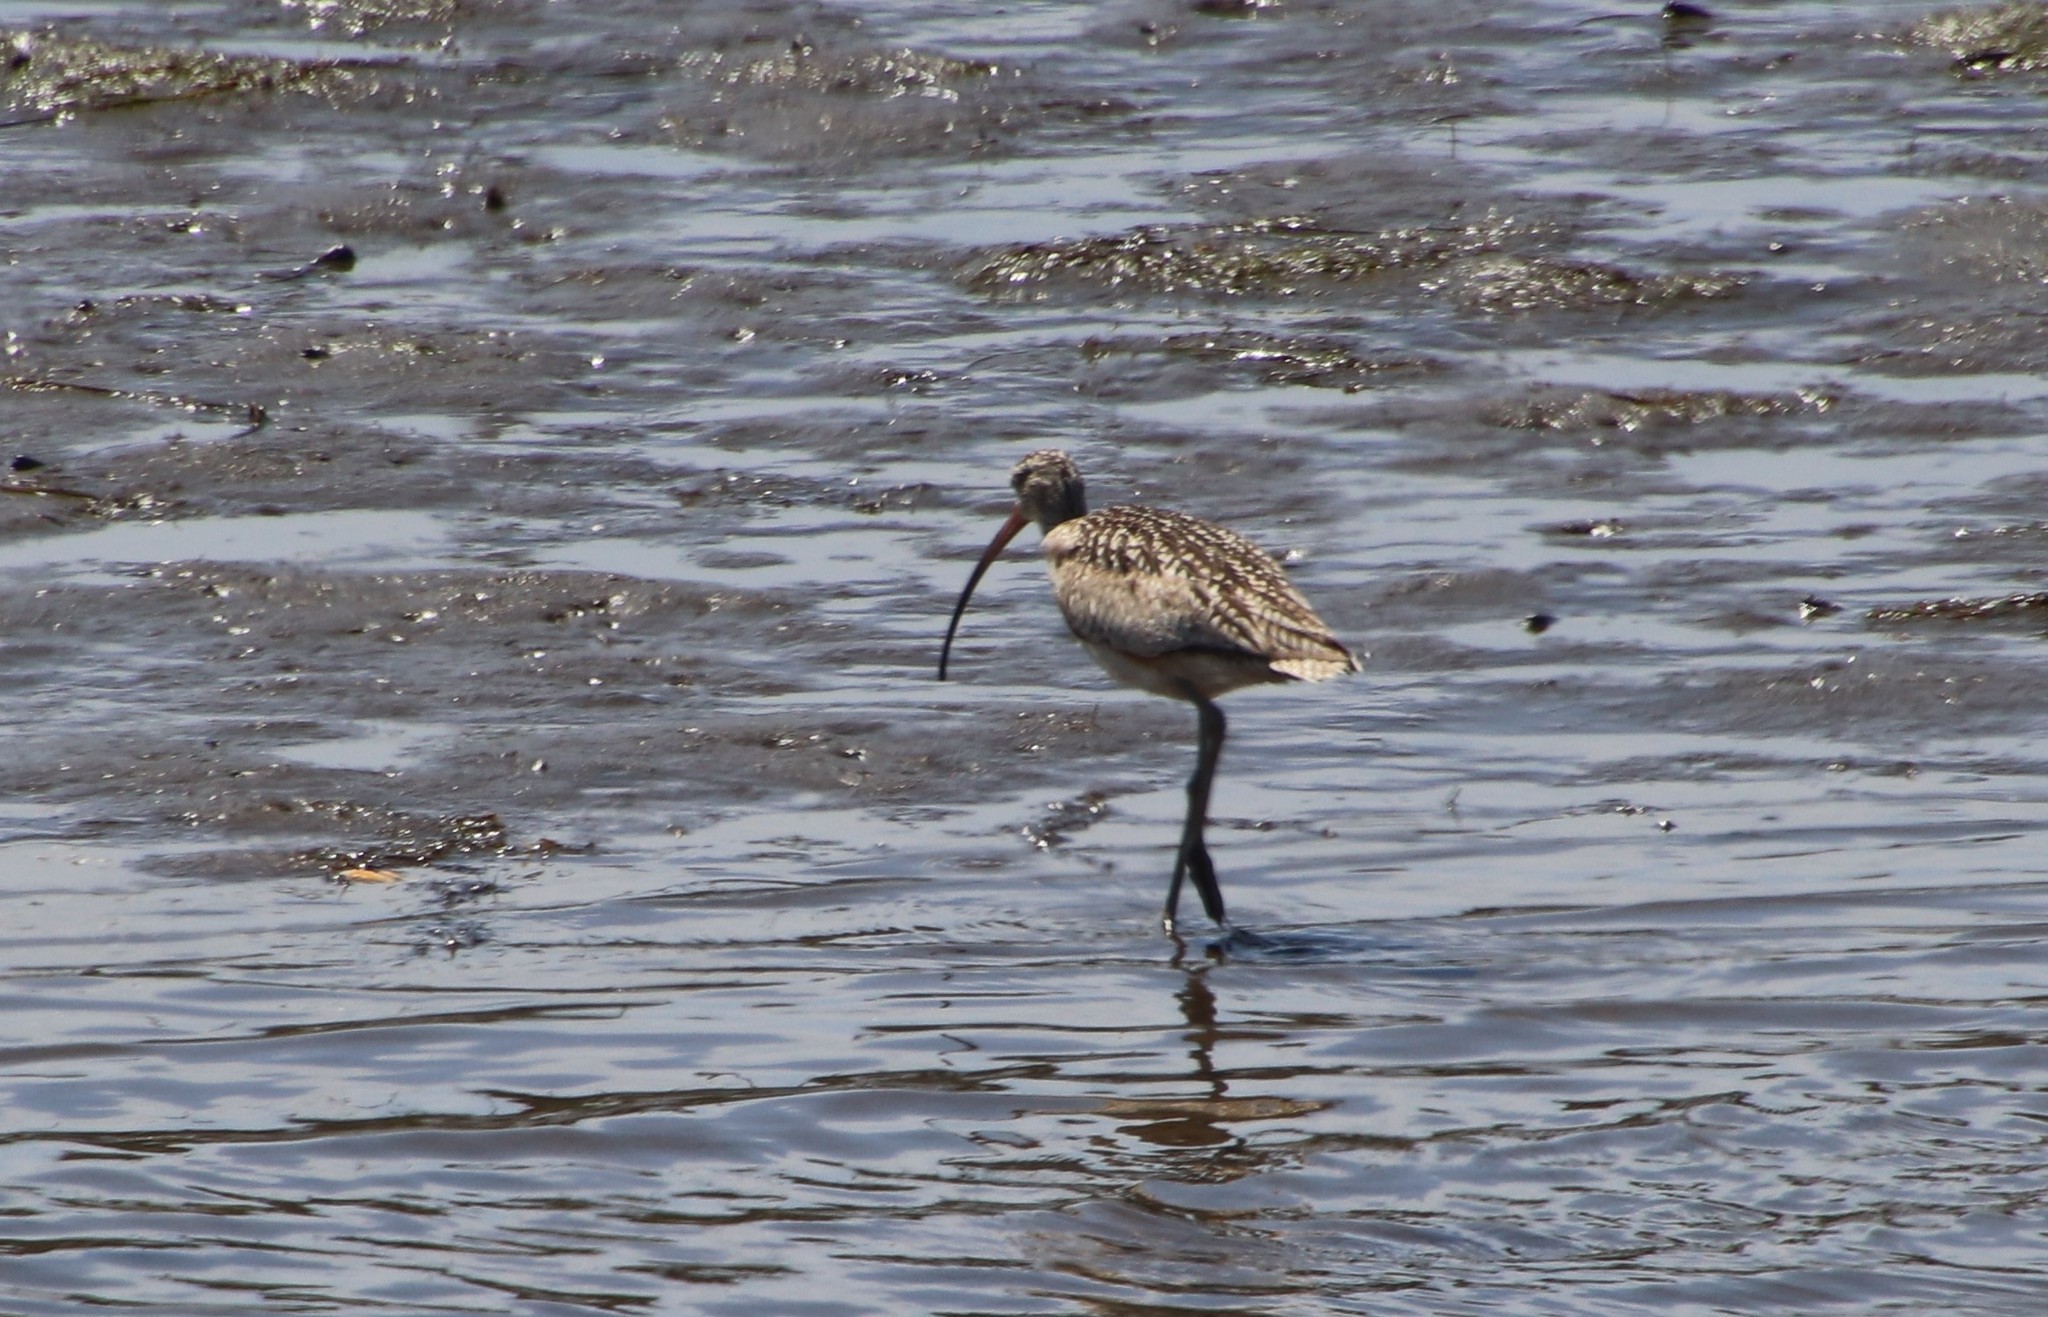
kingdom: Animalia
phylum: Chordata
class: Aves
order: Charadriiformes
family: Scolopacidae
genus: Numenius
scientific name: Numenius americanus
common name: Long-billed curlew
